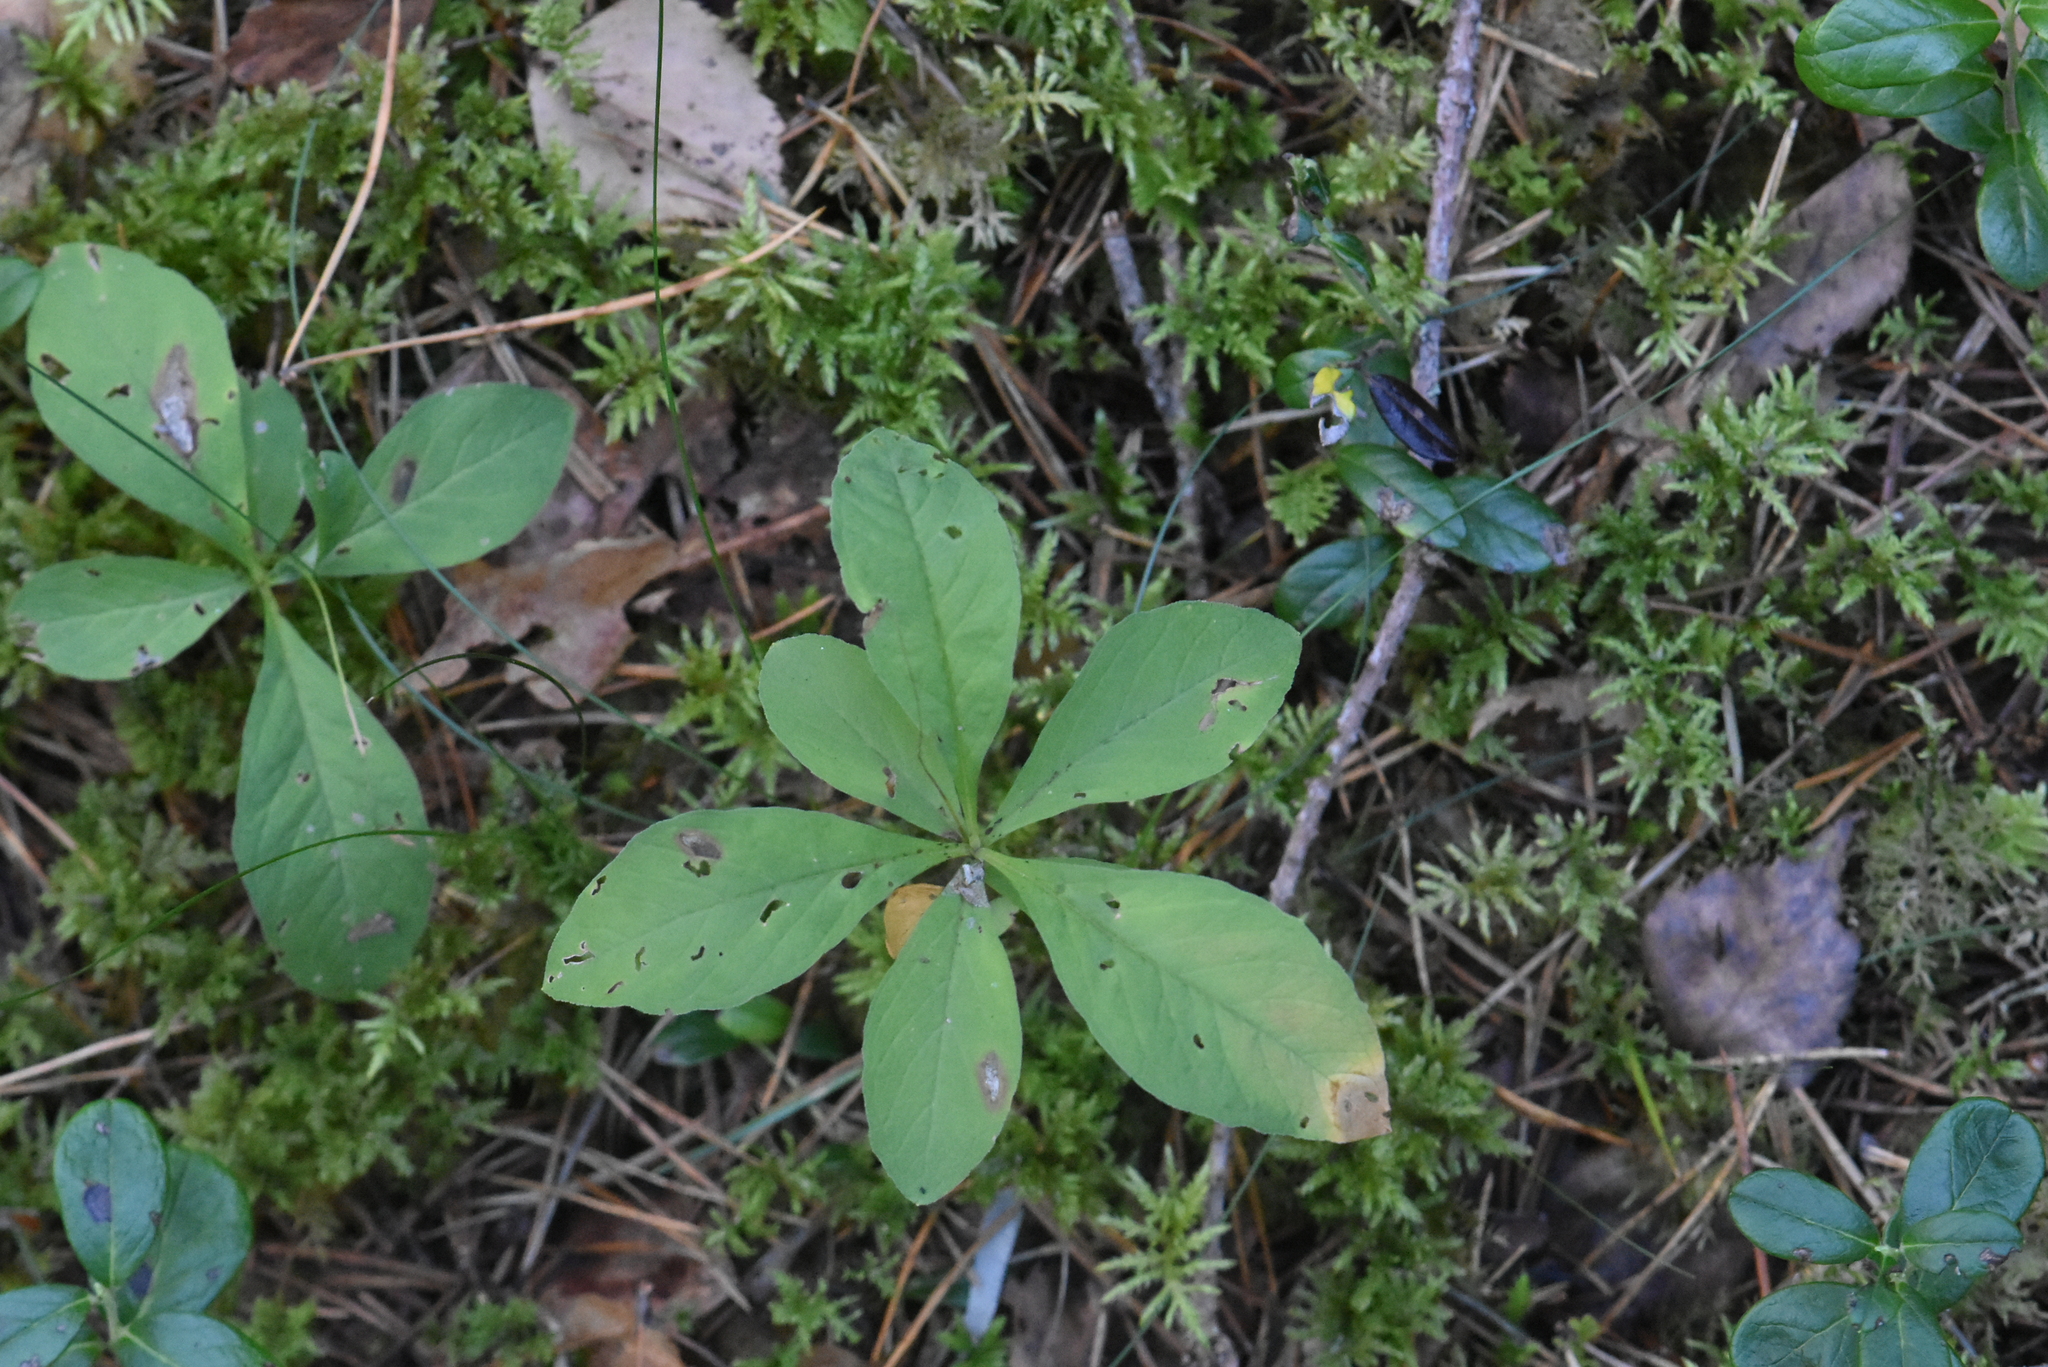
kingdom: Plantae
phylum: Tracheophyta
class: Magnoliopsida
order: Ericales
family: Primulaceae
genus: Lysimachia
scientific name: Lysimachia europaea
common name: Arctic starflower
